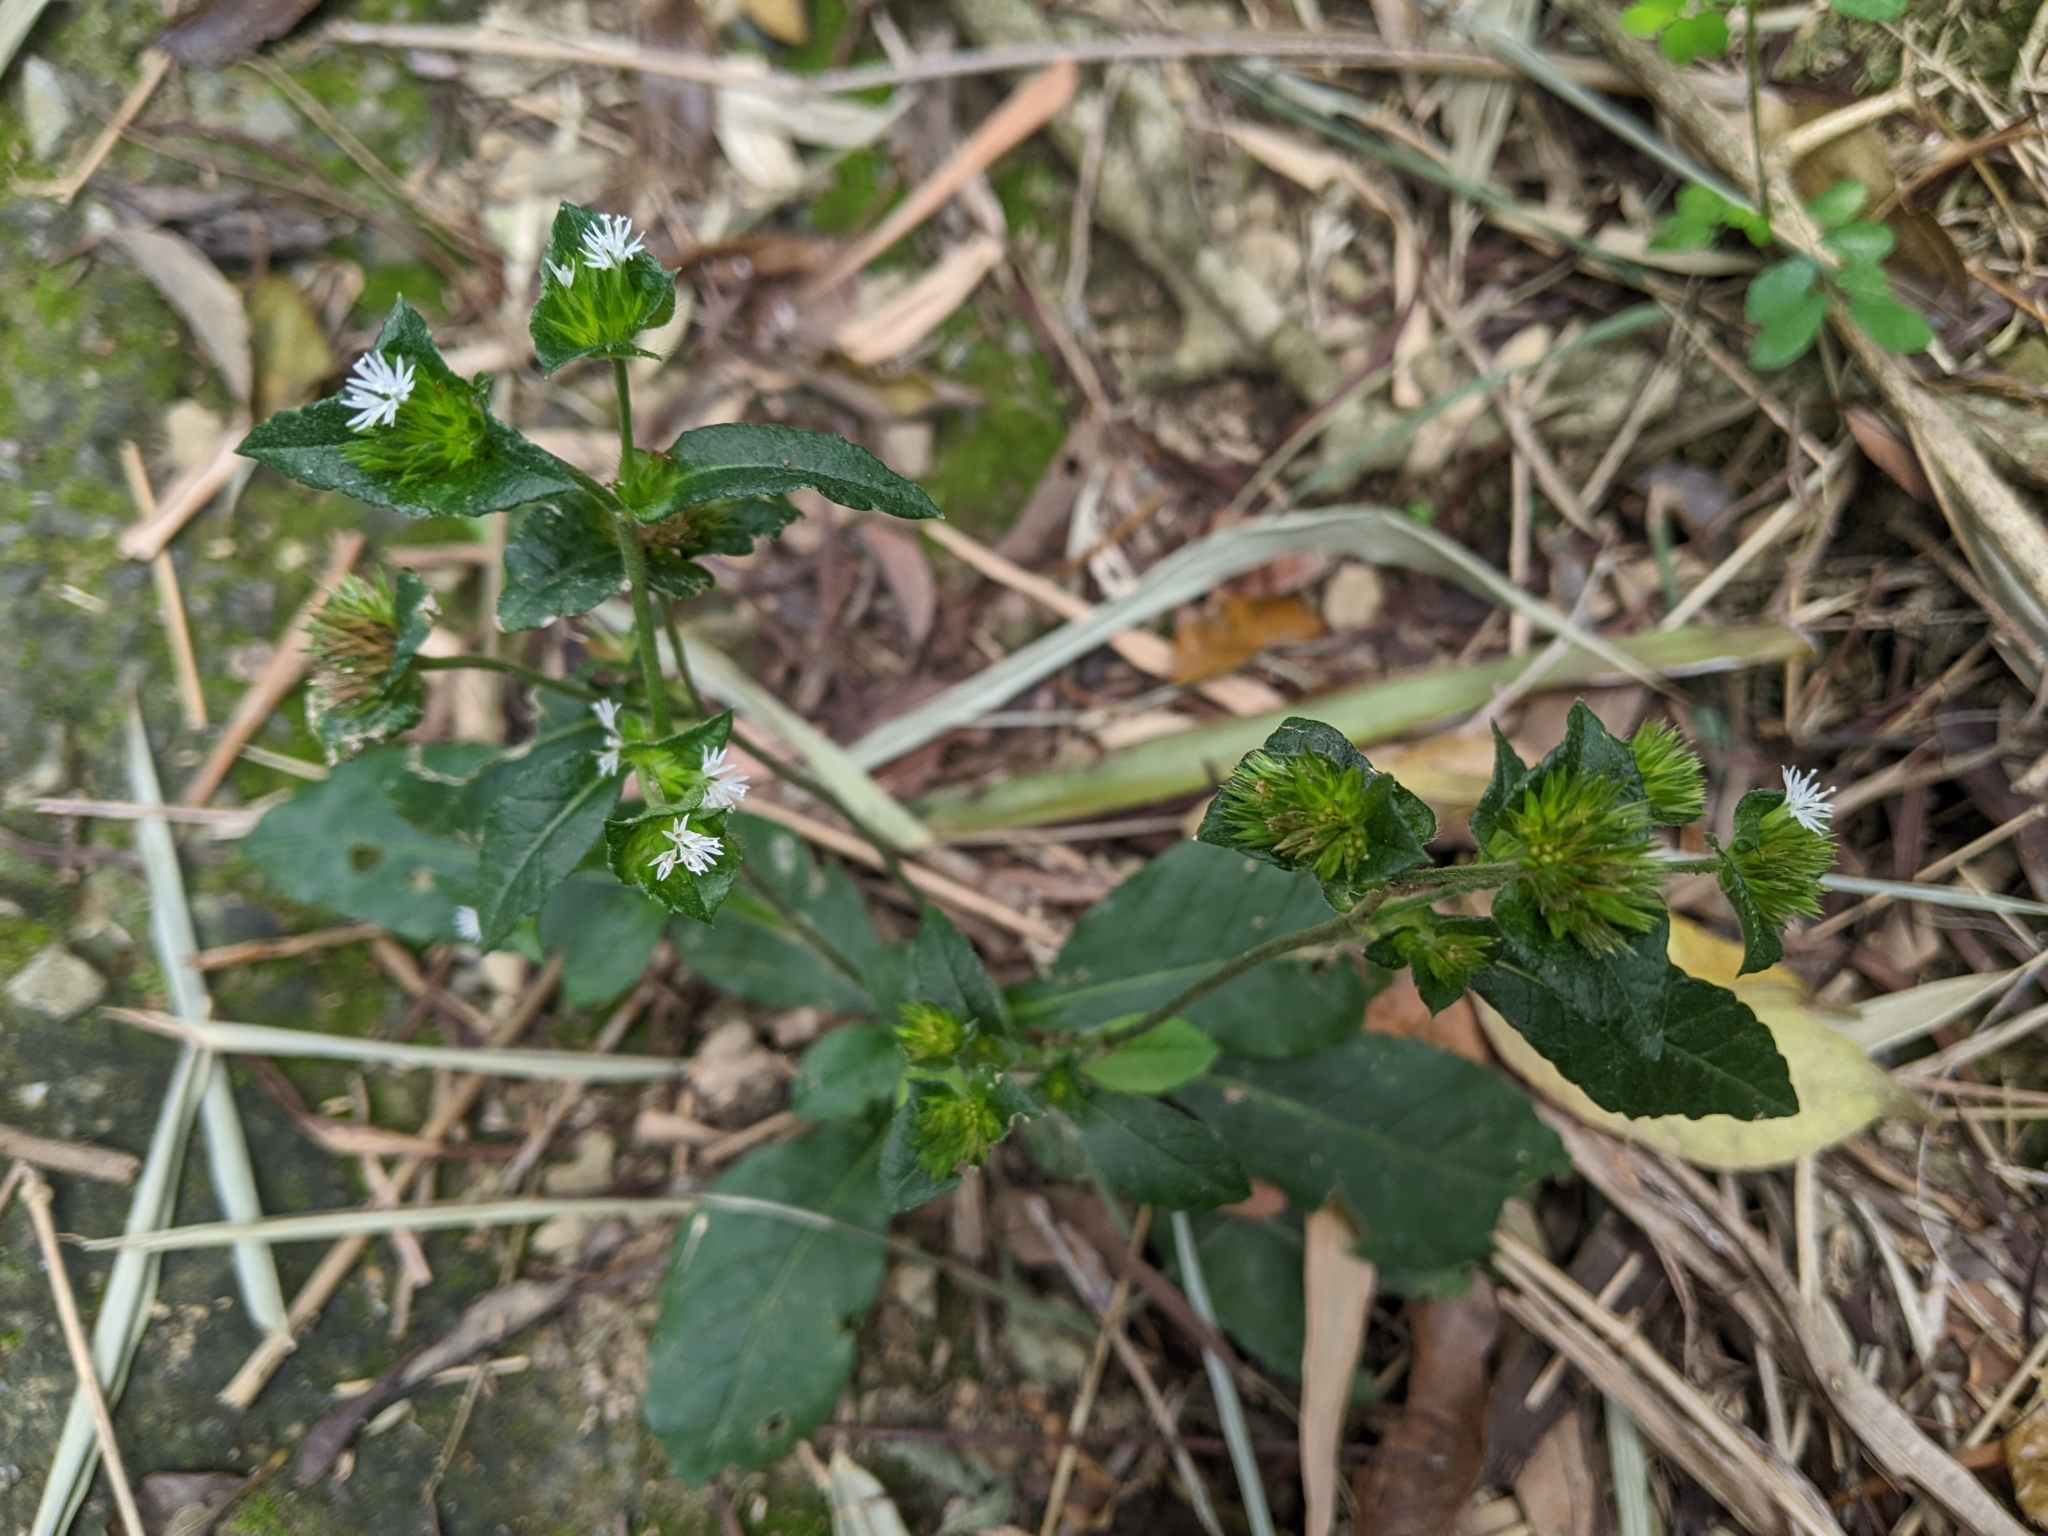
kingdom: Plantae
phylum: Tracheophyta
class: Magnoliopsida
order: Asterales
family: Asteraceae
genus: Elephantopus
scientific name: Elephantopus mollis
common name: Soft elephantsfoot
